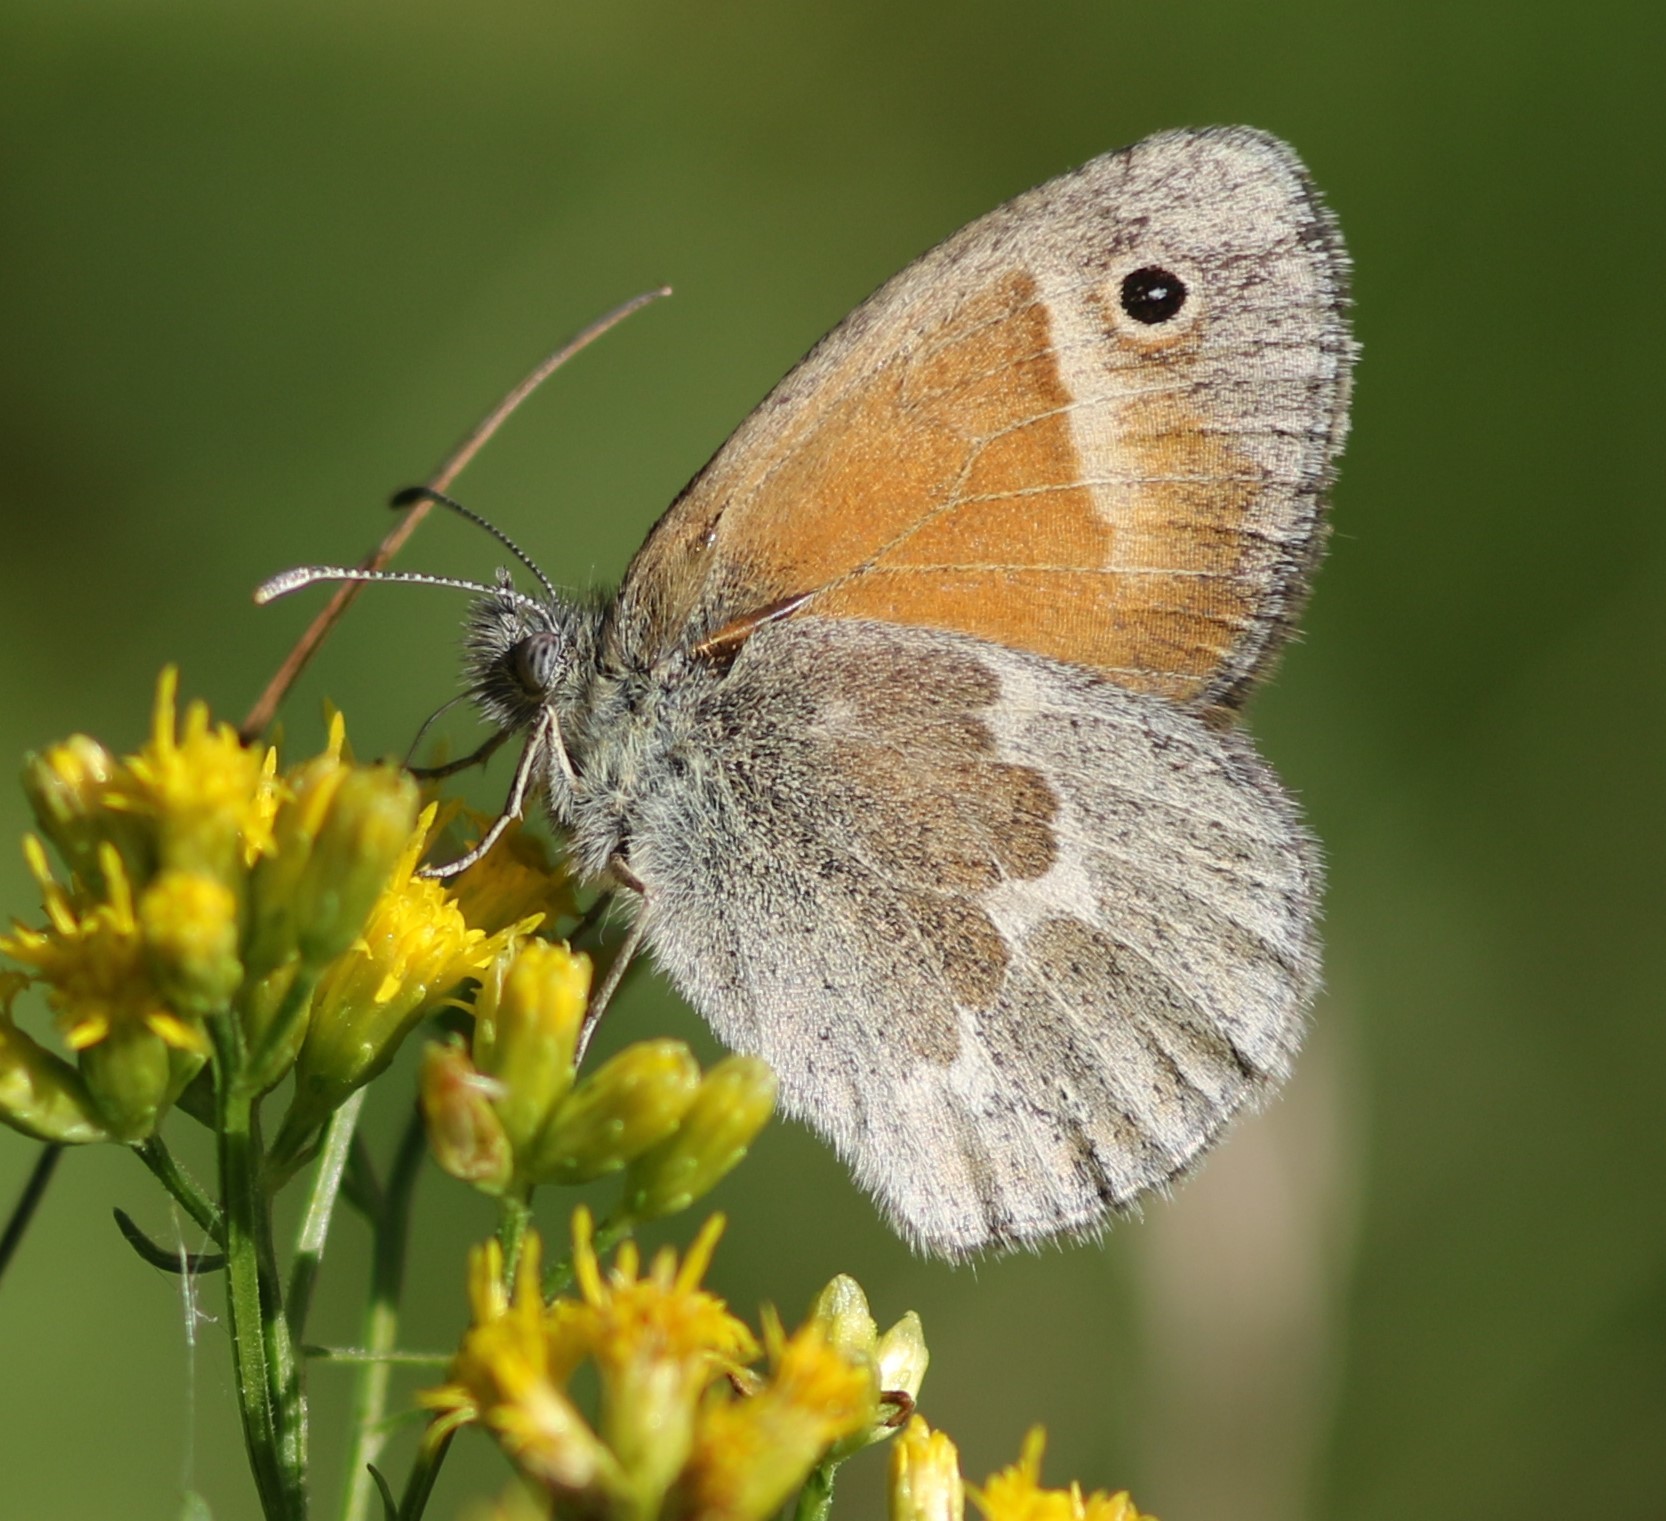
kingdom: Animalia
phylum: Arthropoda
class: Insecta
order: Lepidoptera
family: Nymphalidae
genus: Coenonympha
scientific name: Coenonympha california
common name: Common ringlet
